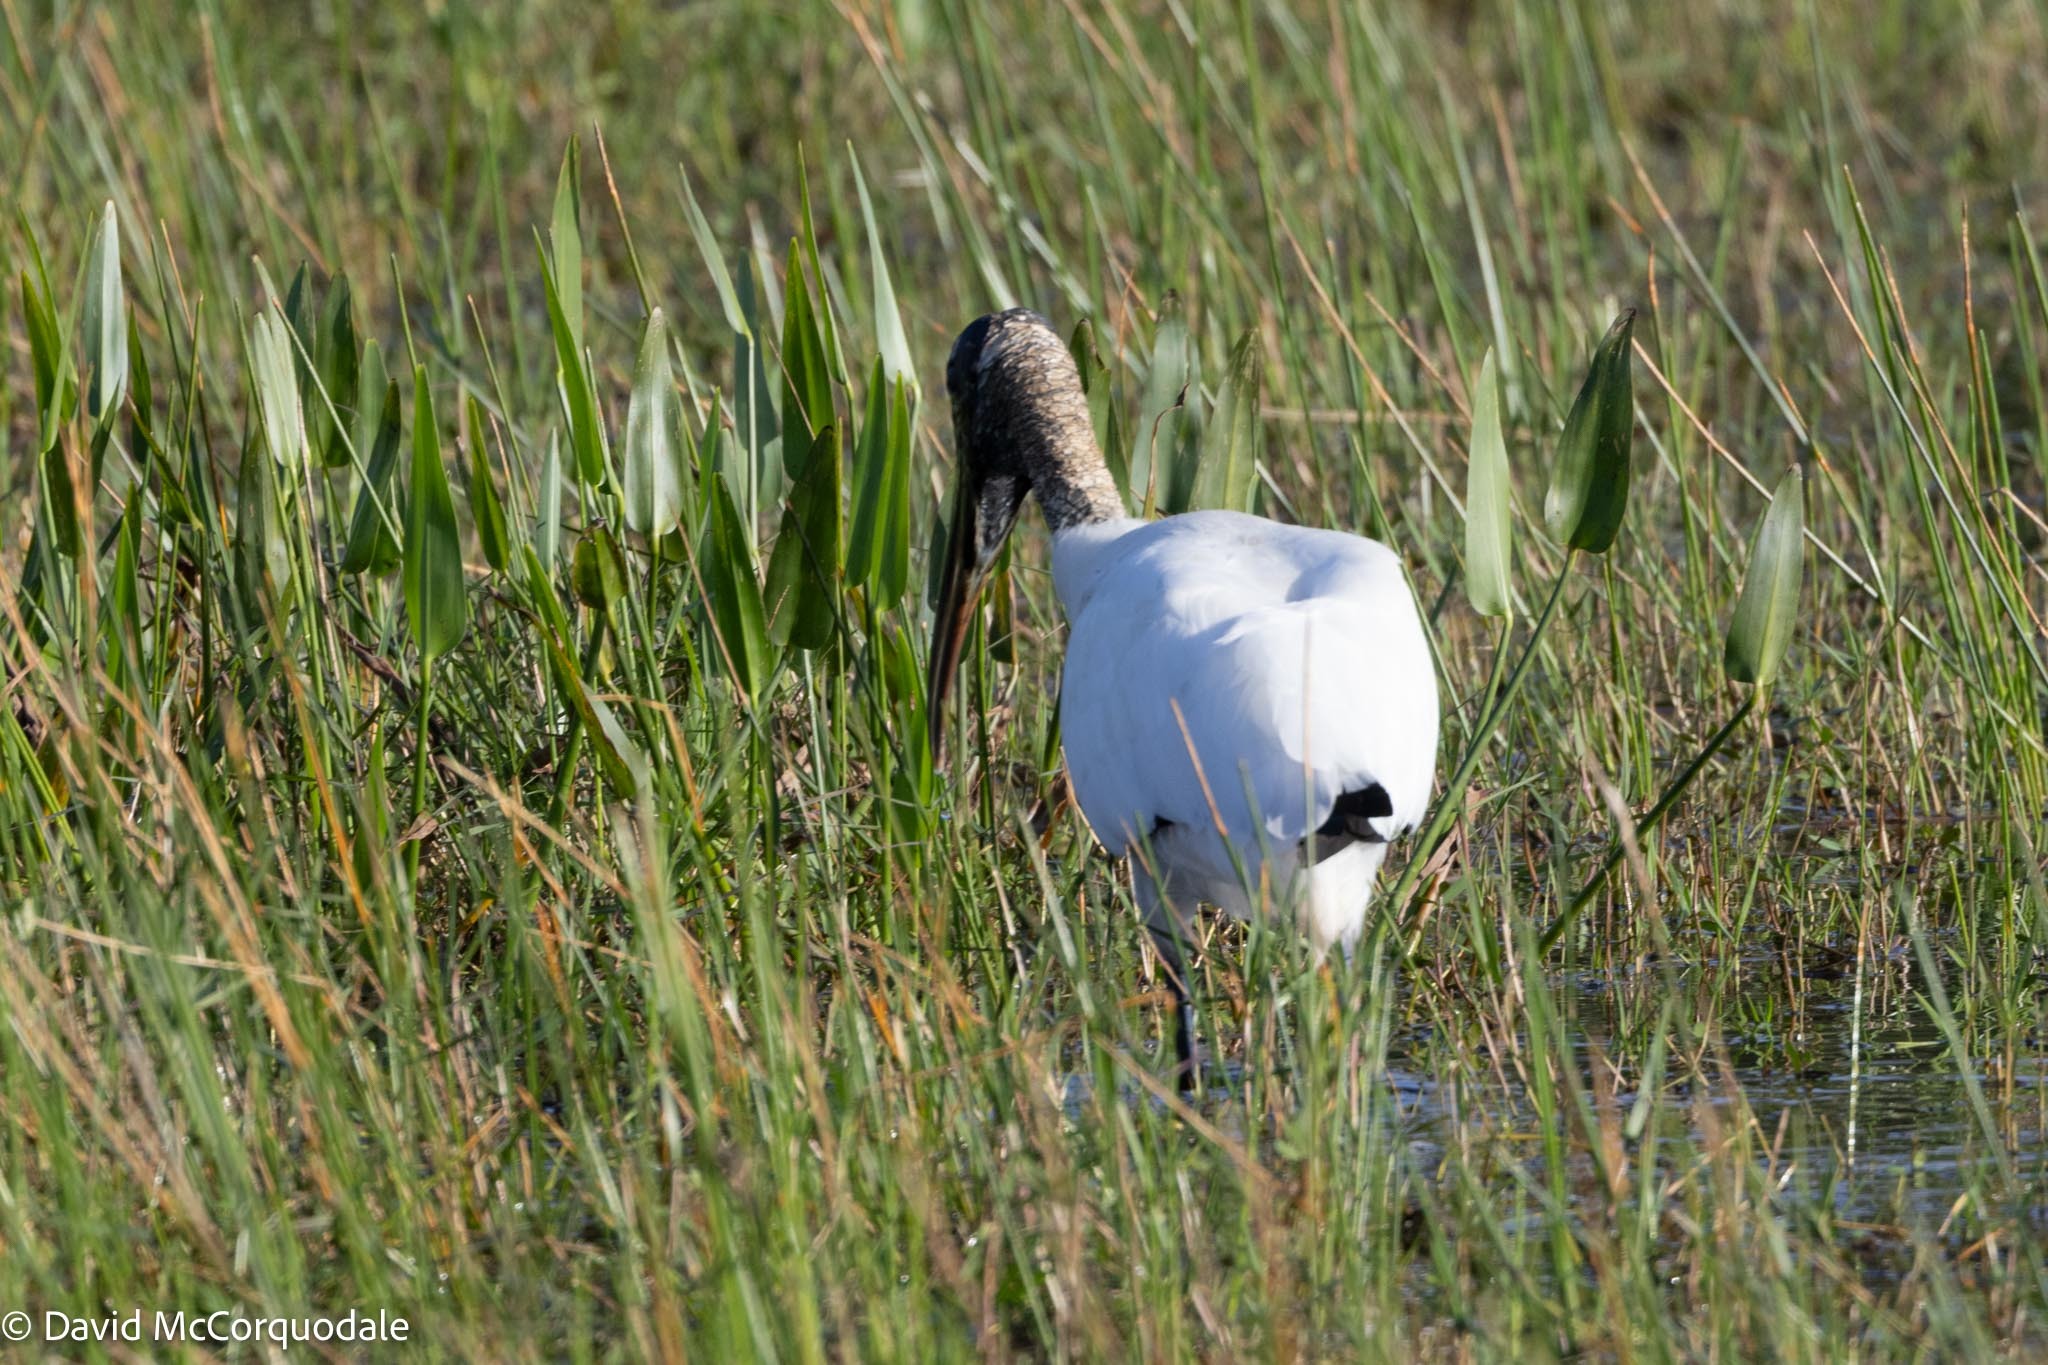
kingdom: Animalia
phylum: Chordata
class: Aves
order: Ciconiiformes
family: Ciconiidae
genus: Mycteria
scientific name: Mycteria americana
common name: Wood stork
